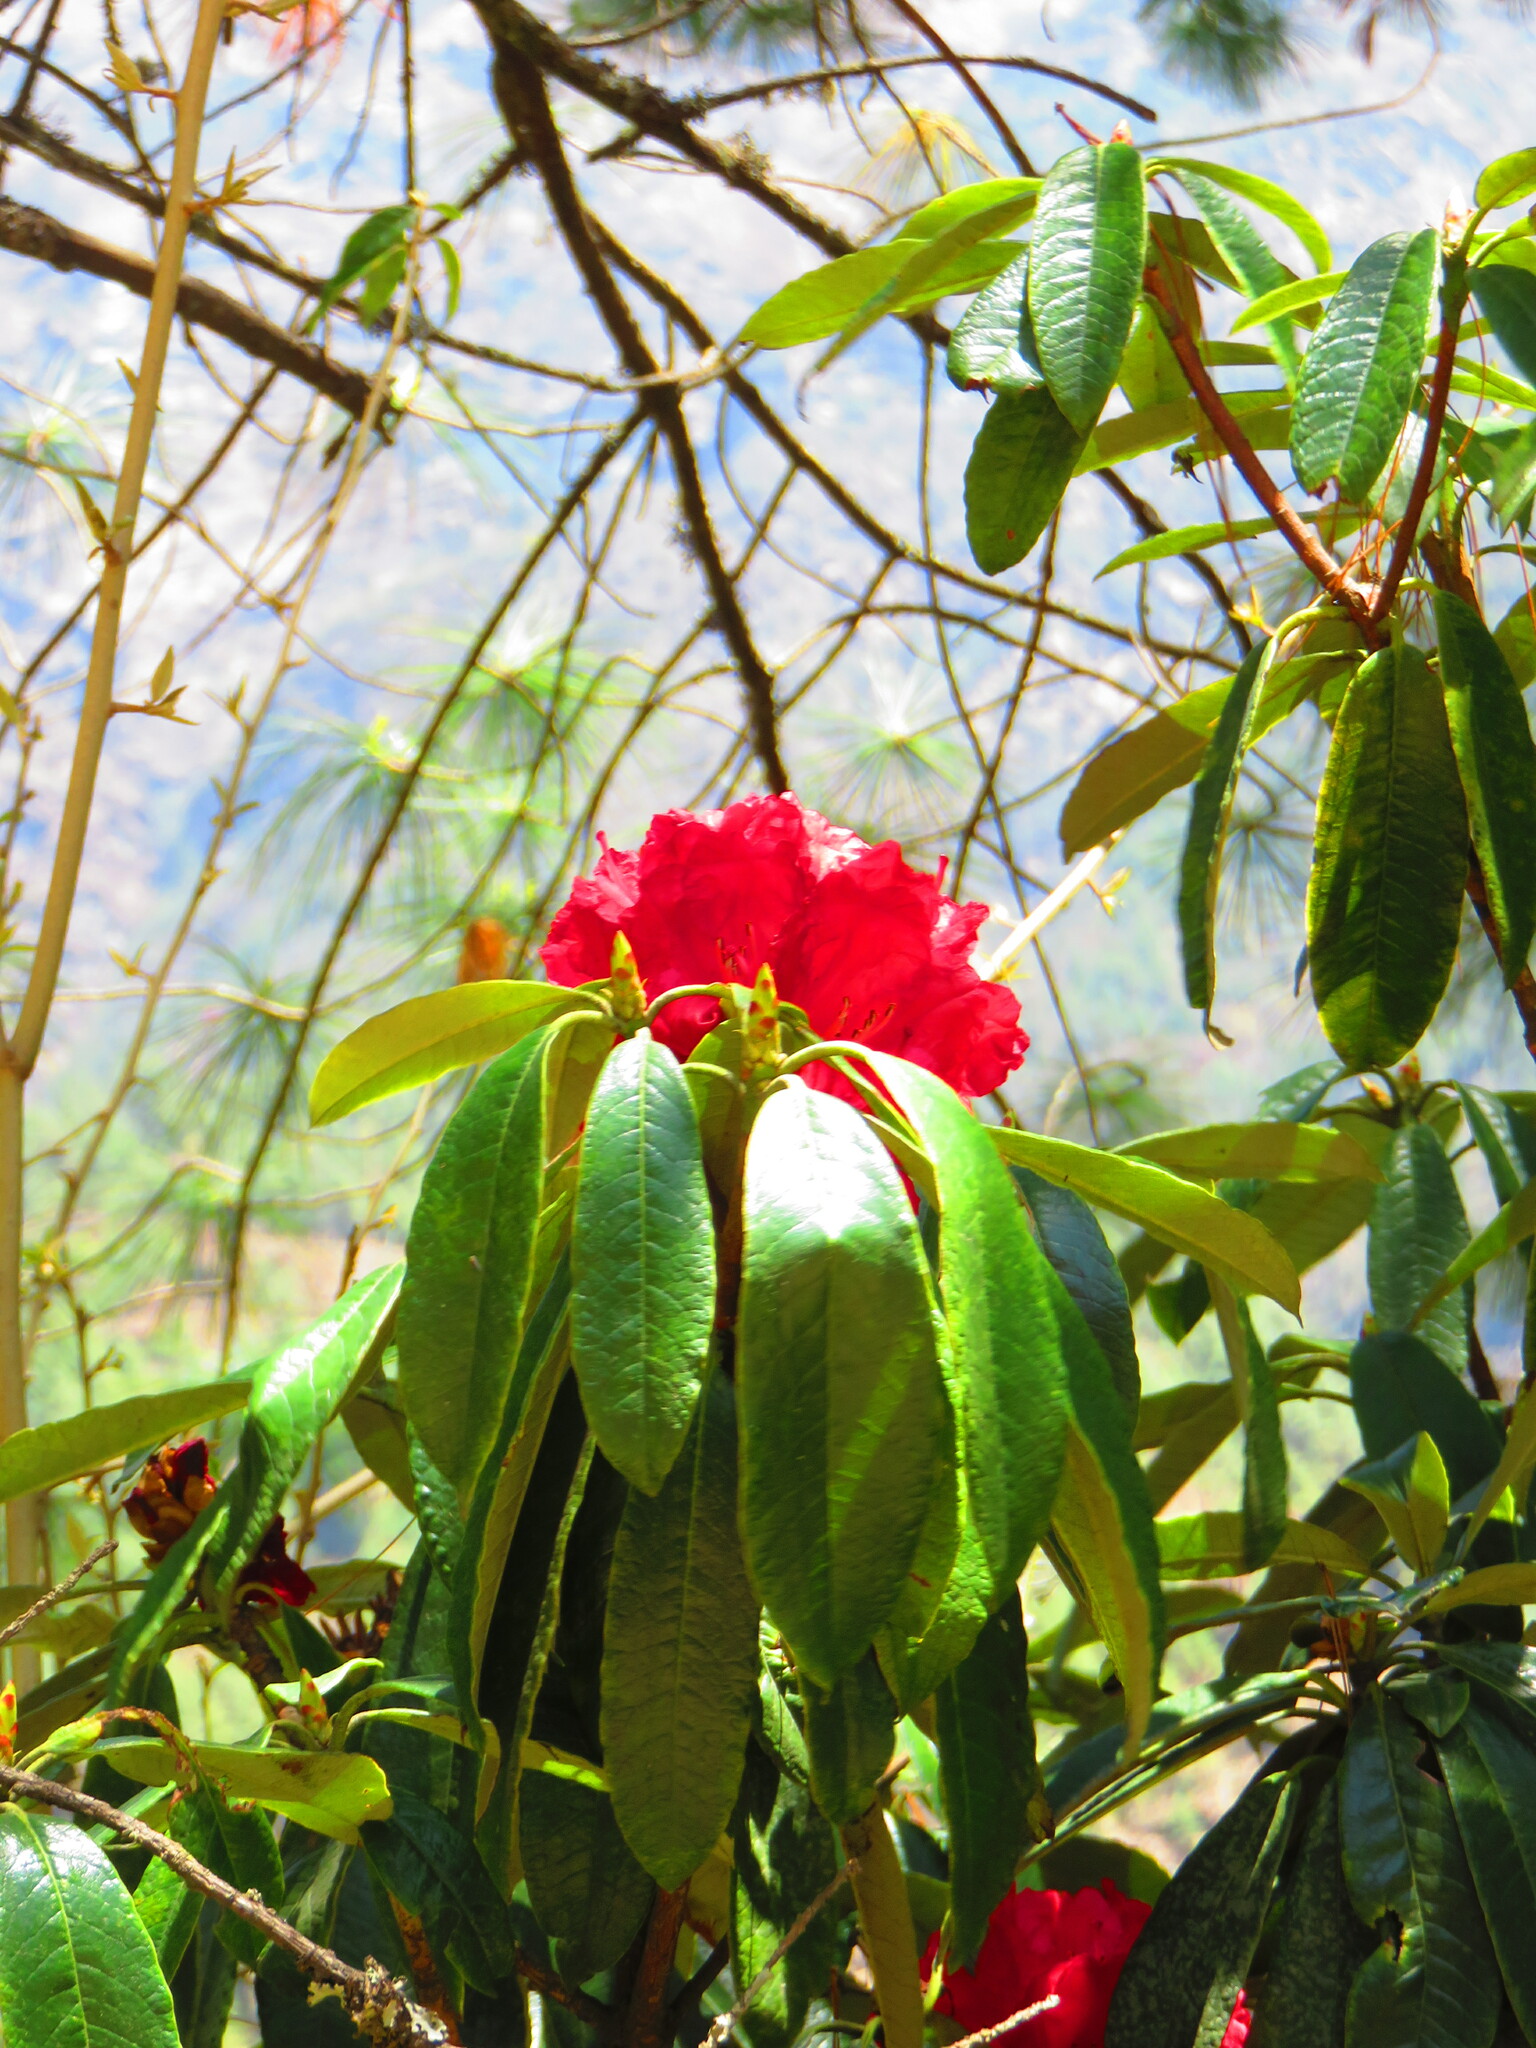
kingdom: Plantae
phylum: Tracheophyta
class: Magnoliopsida
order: Ericales
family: Ericaceae
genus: Rhododendron
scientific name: Rhododendron arboreum
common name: Tree rhododendron
